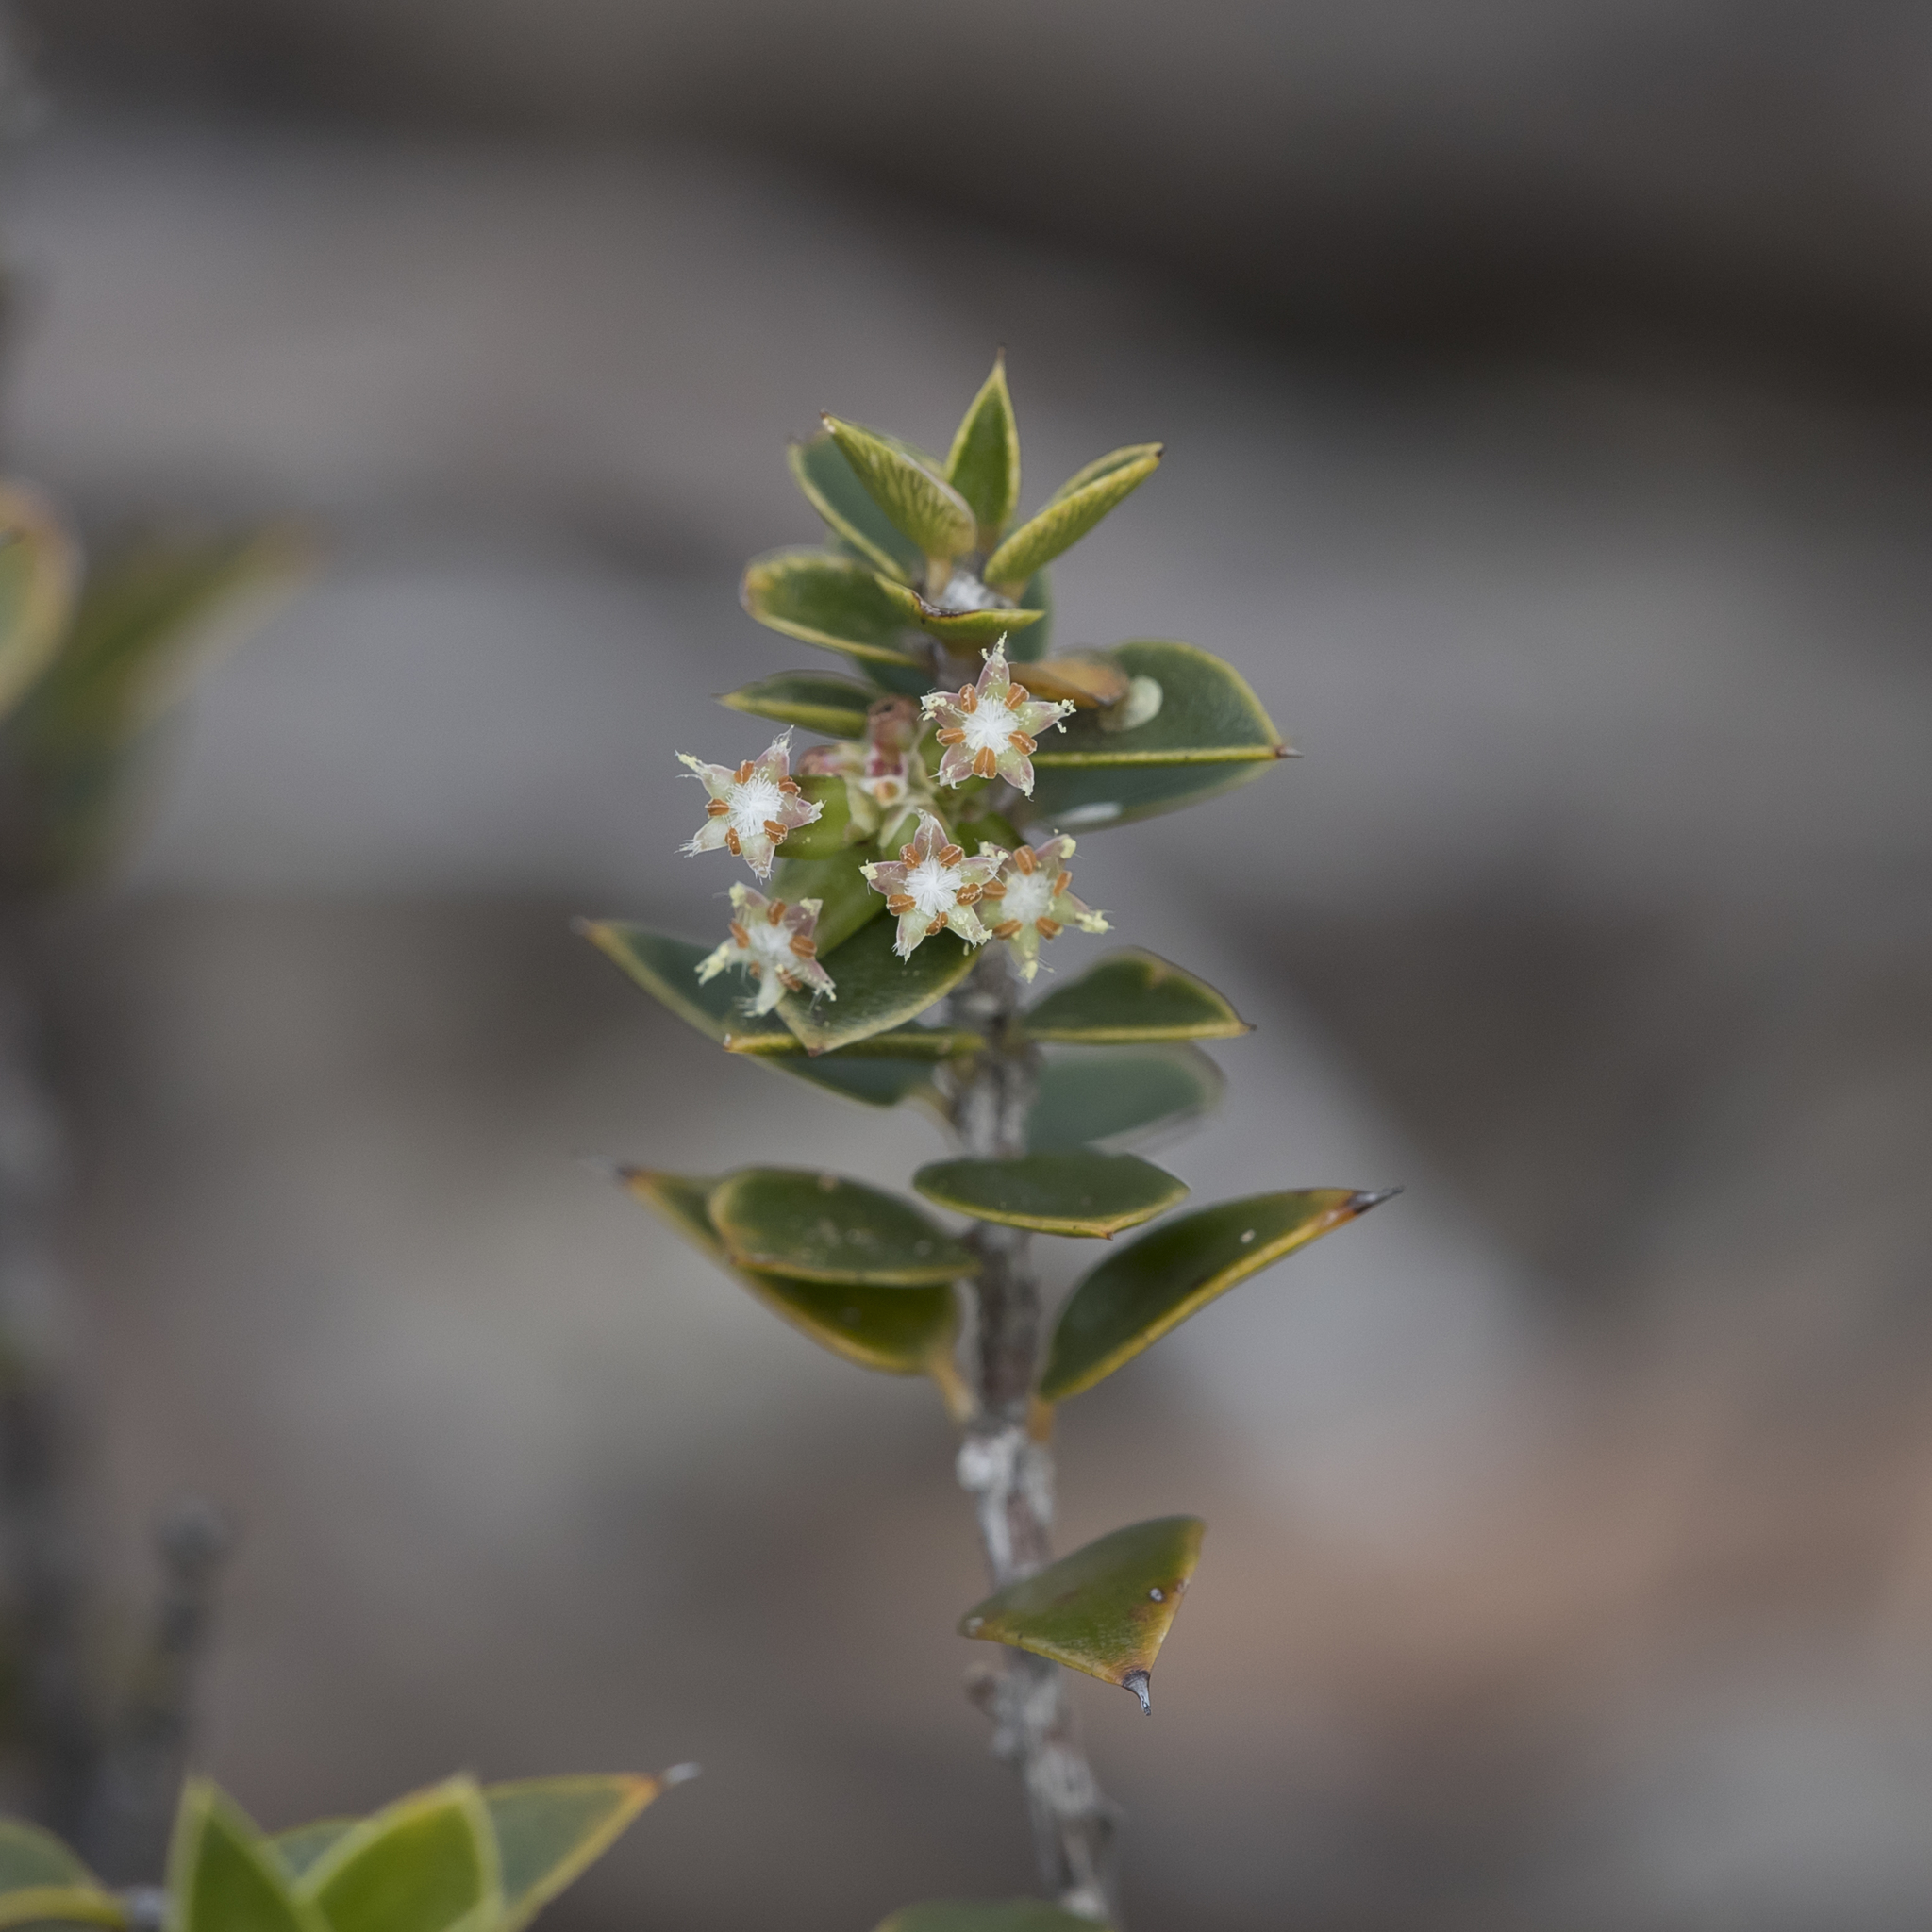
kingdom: Plantae
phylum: Tracheophyta
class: Magnoliopsida
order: Ericales
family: Ericaceae
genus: Acrotriche
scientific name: Acrotriche patula
